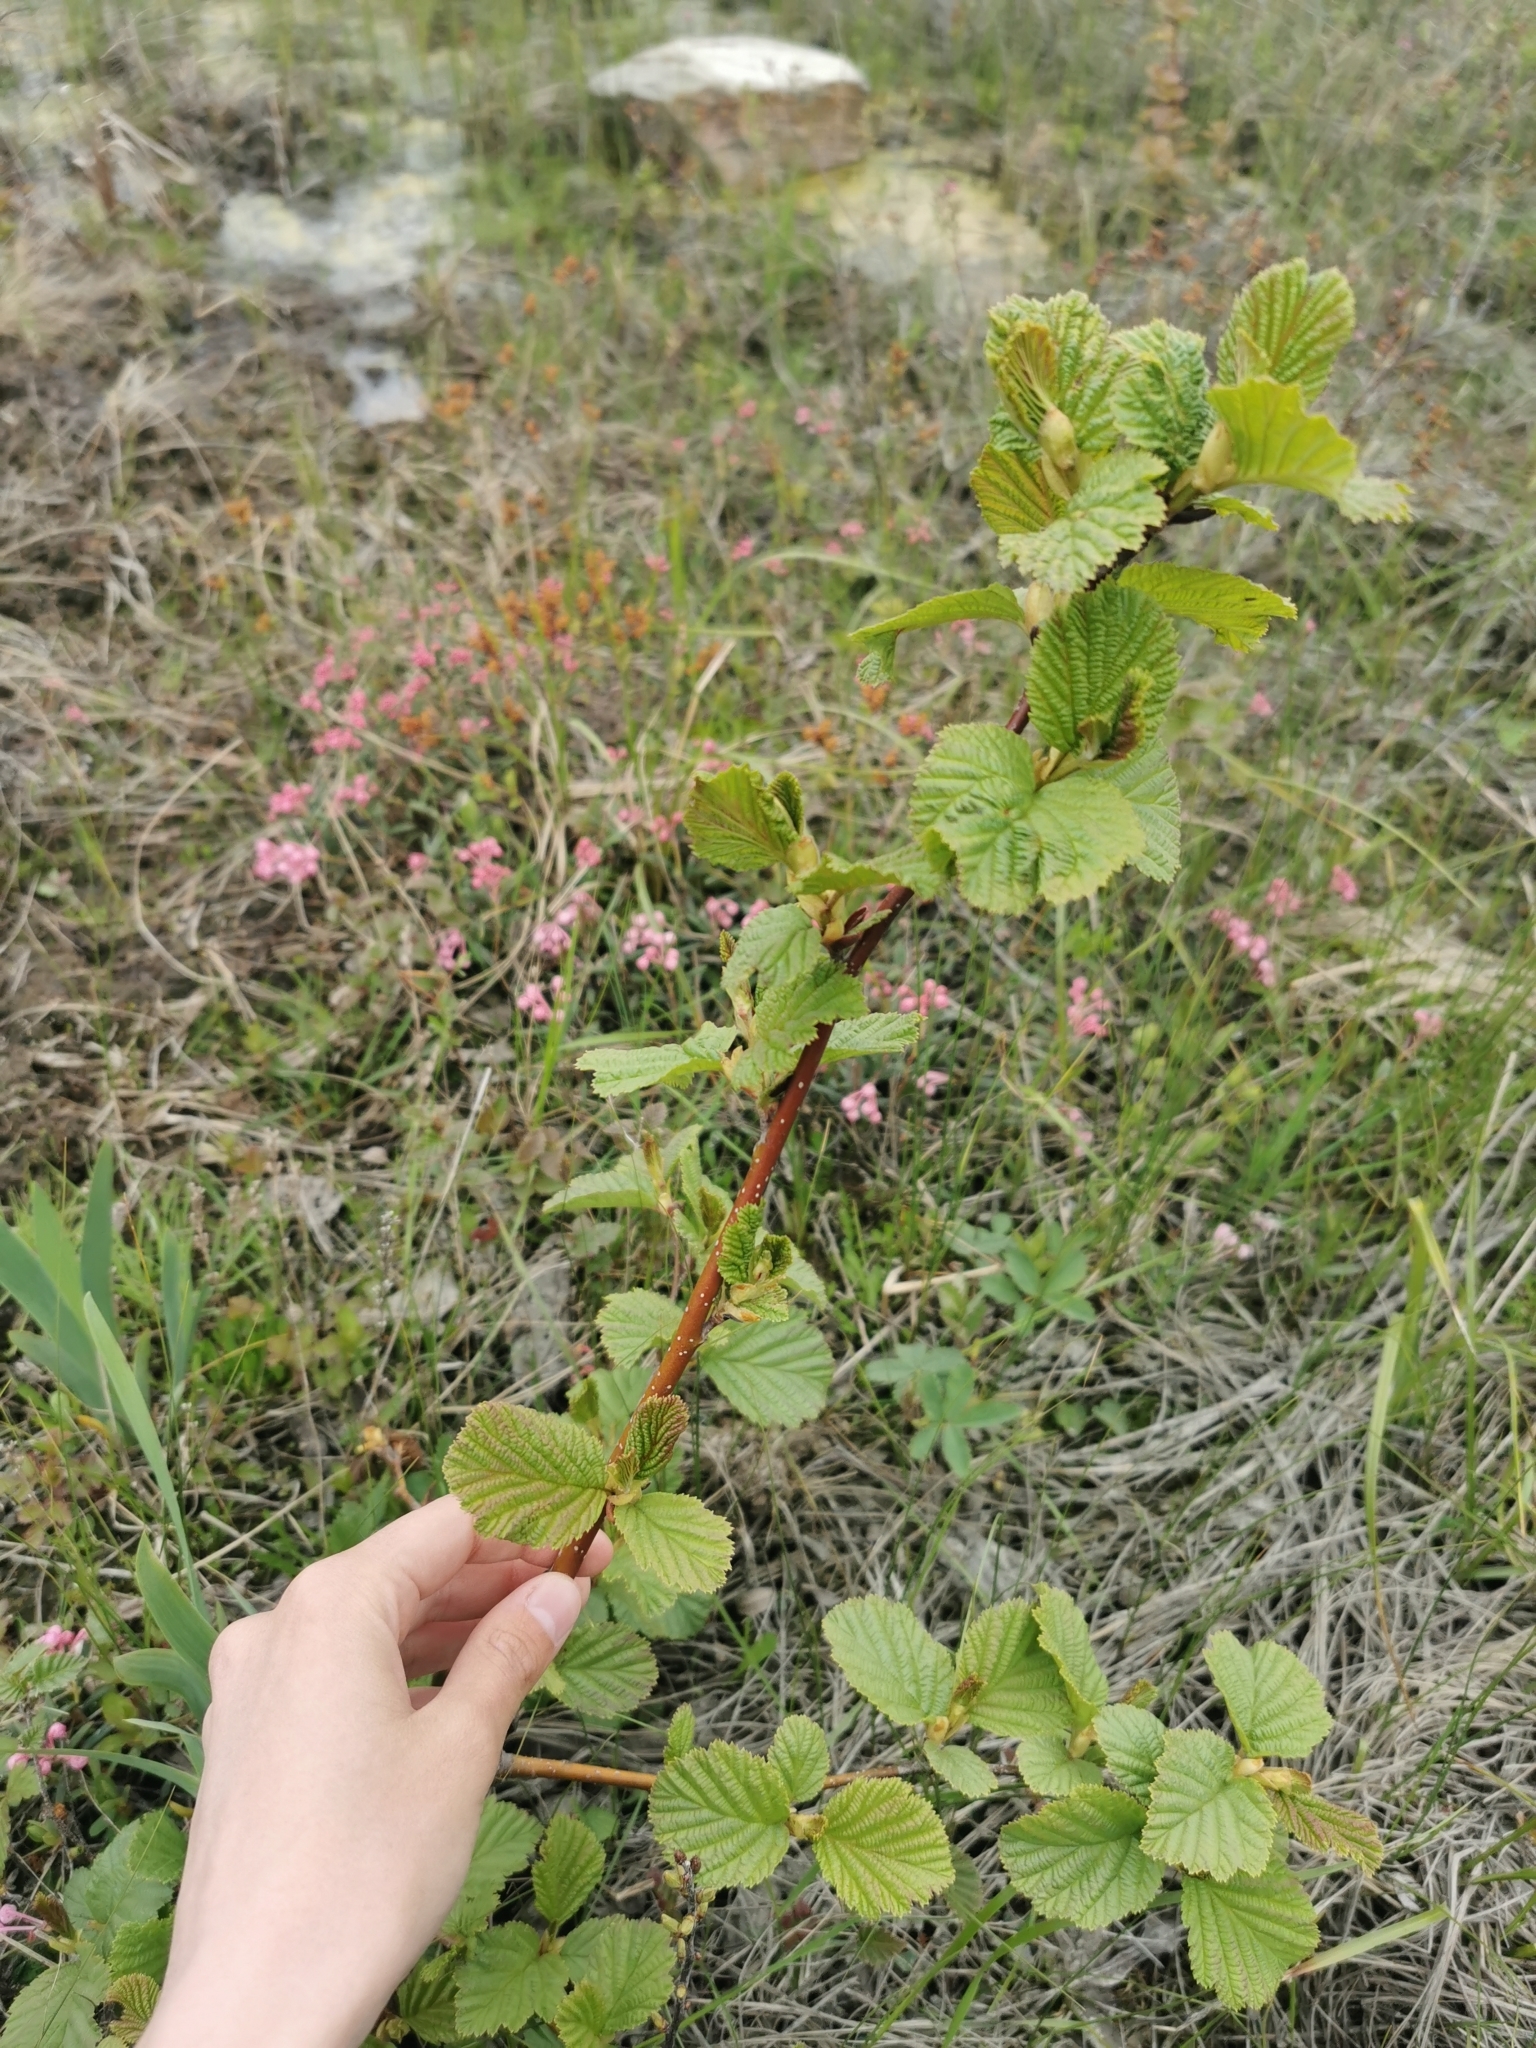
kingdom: Plantae
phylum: Tracheophyta
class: Magnoliopsida
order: Fagales
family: Betulaceae
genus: Alnus
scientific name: Alnus hirsuta
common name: Manchurian alder
